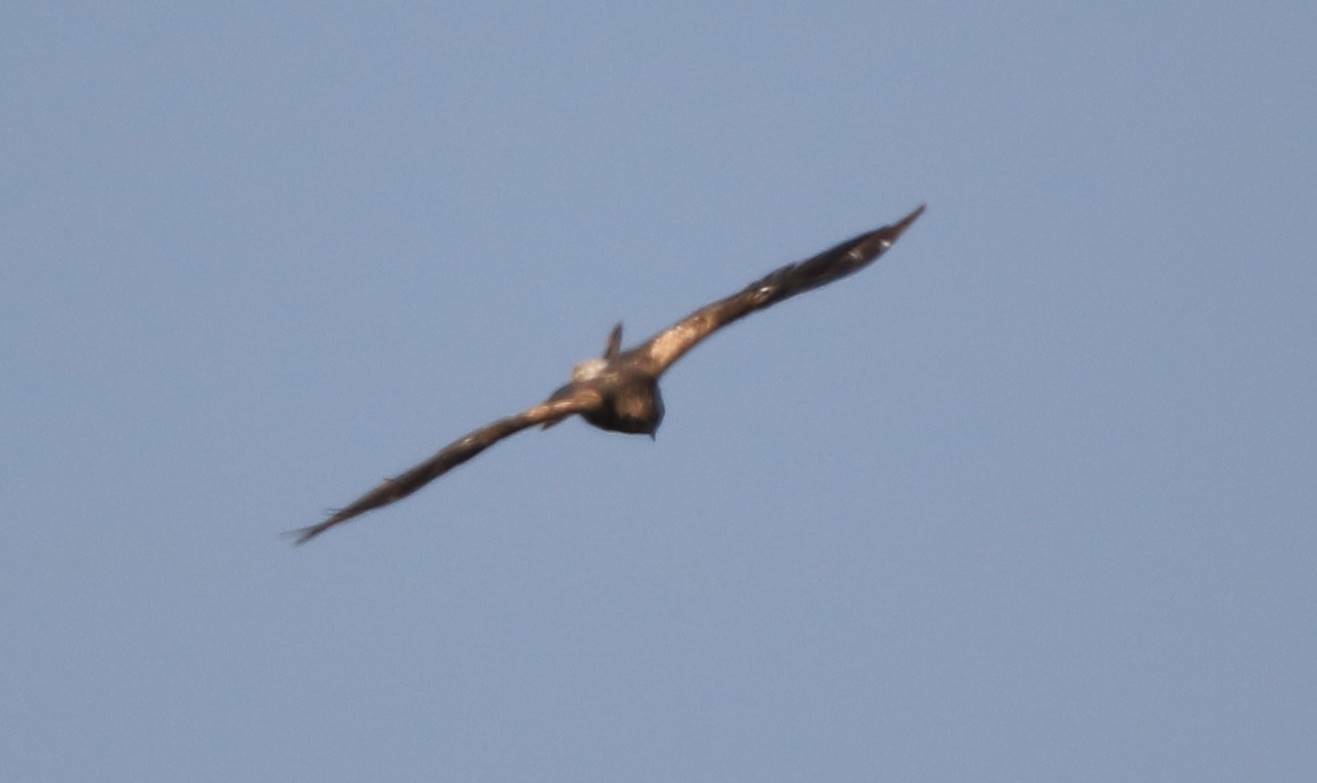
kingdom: Animalia
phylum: Chordata
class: Aves
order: Accipitriformes
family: Accipitridae
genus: Circus
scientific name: Circus aeruginosus
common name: Western marsh harrier
